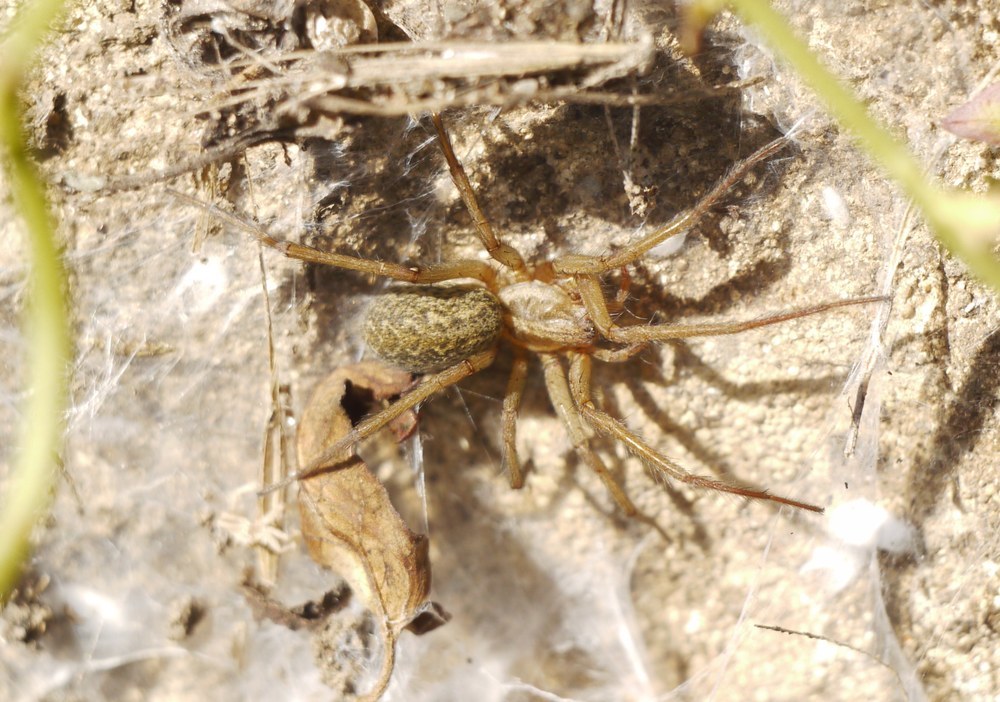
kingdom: Animalia
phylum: Arthropoda
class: Arachnida
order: Araneae
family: Agelenidae
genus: Eratigena
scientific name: Eratigena agrestis
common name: Hobo spider
